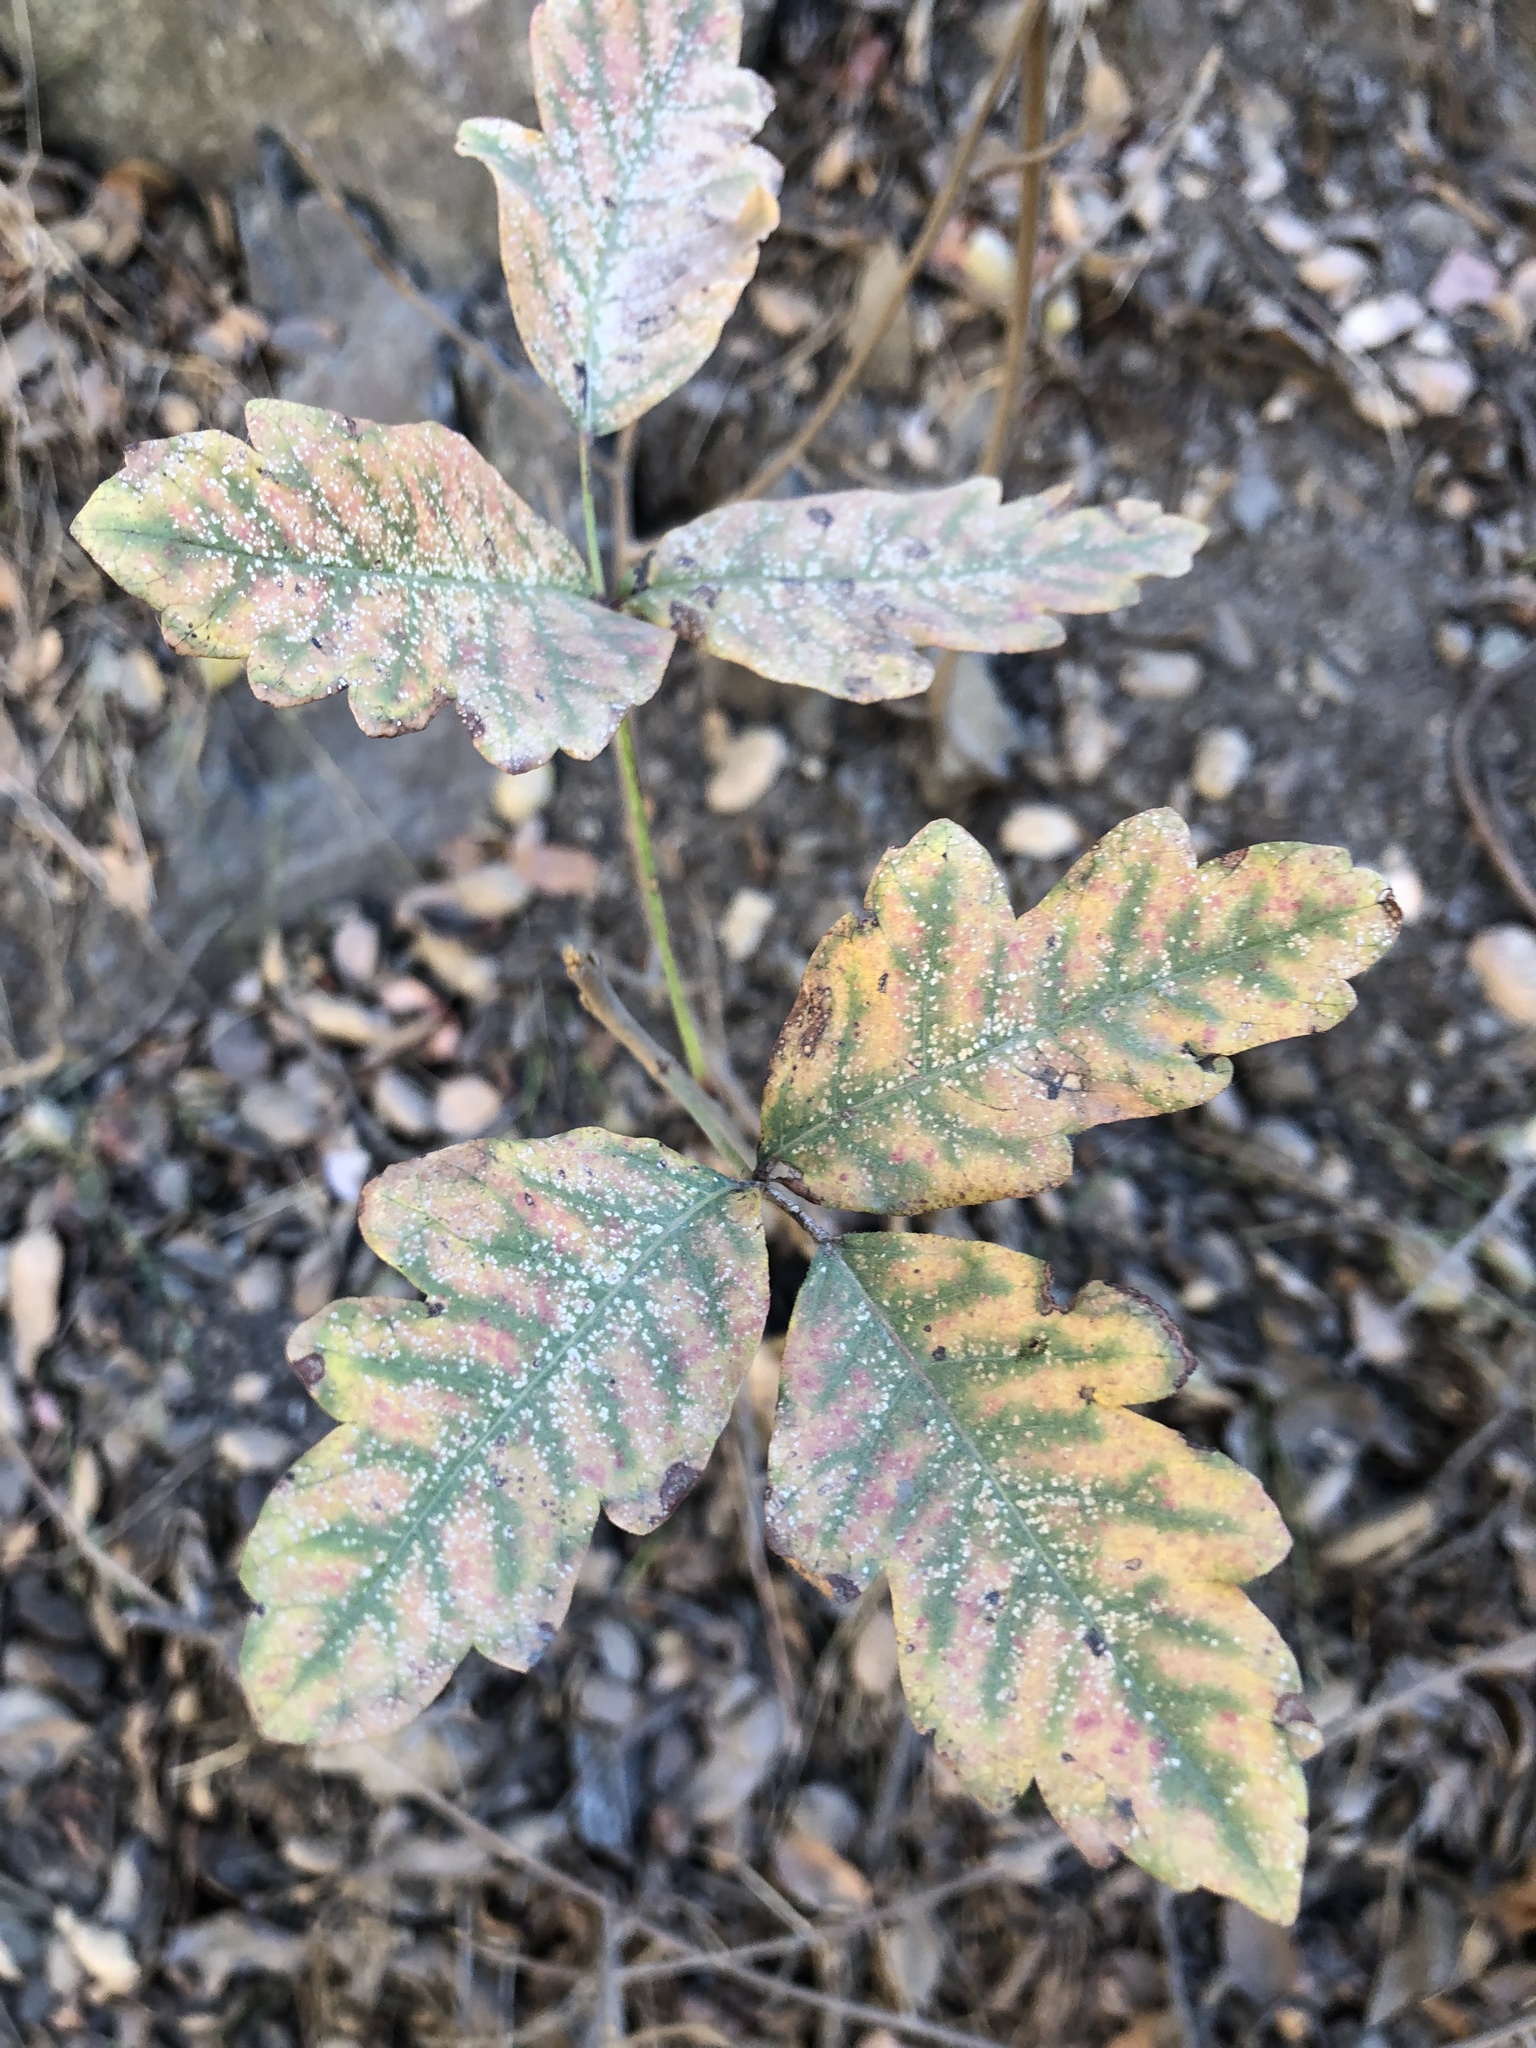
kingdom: Plantae
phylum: Tracheophyta
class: Magnoliopsida
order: Sapindales
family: Anacardiaceae
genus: Toxicodendron
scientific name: Toxicodendron diversilobum
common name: Pacific poison-oak
